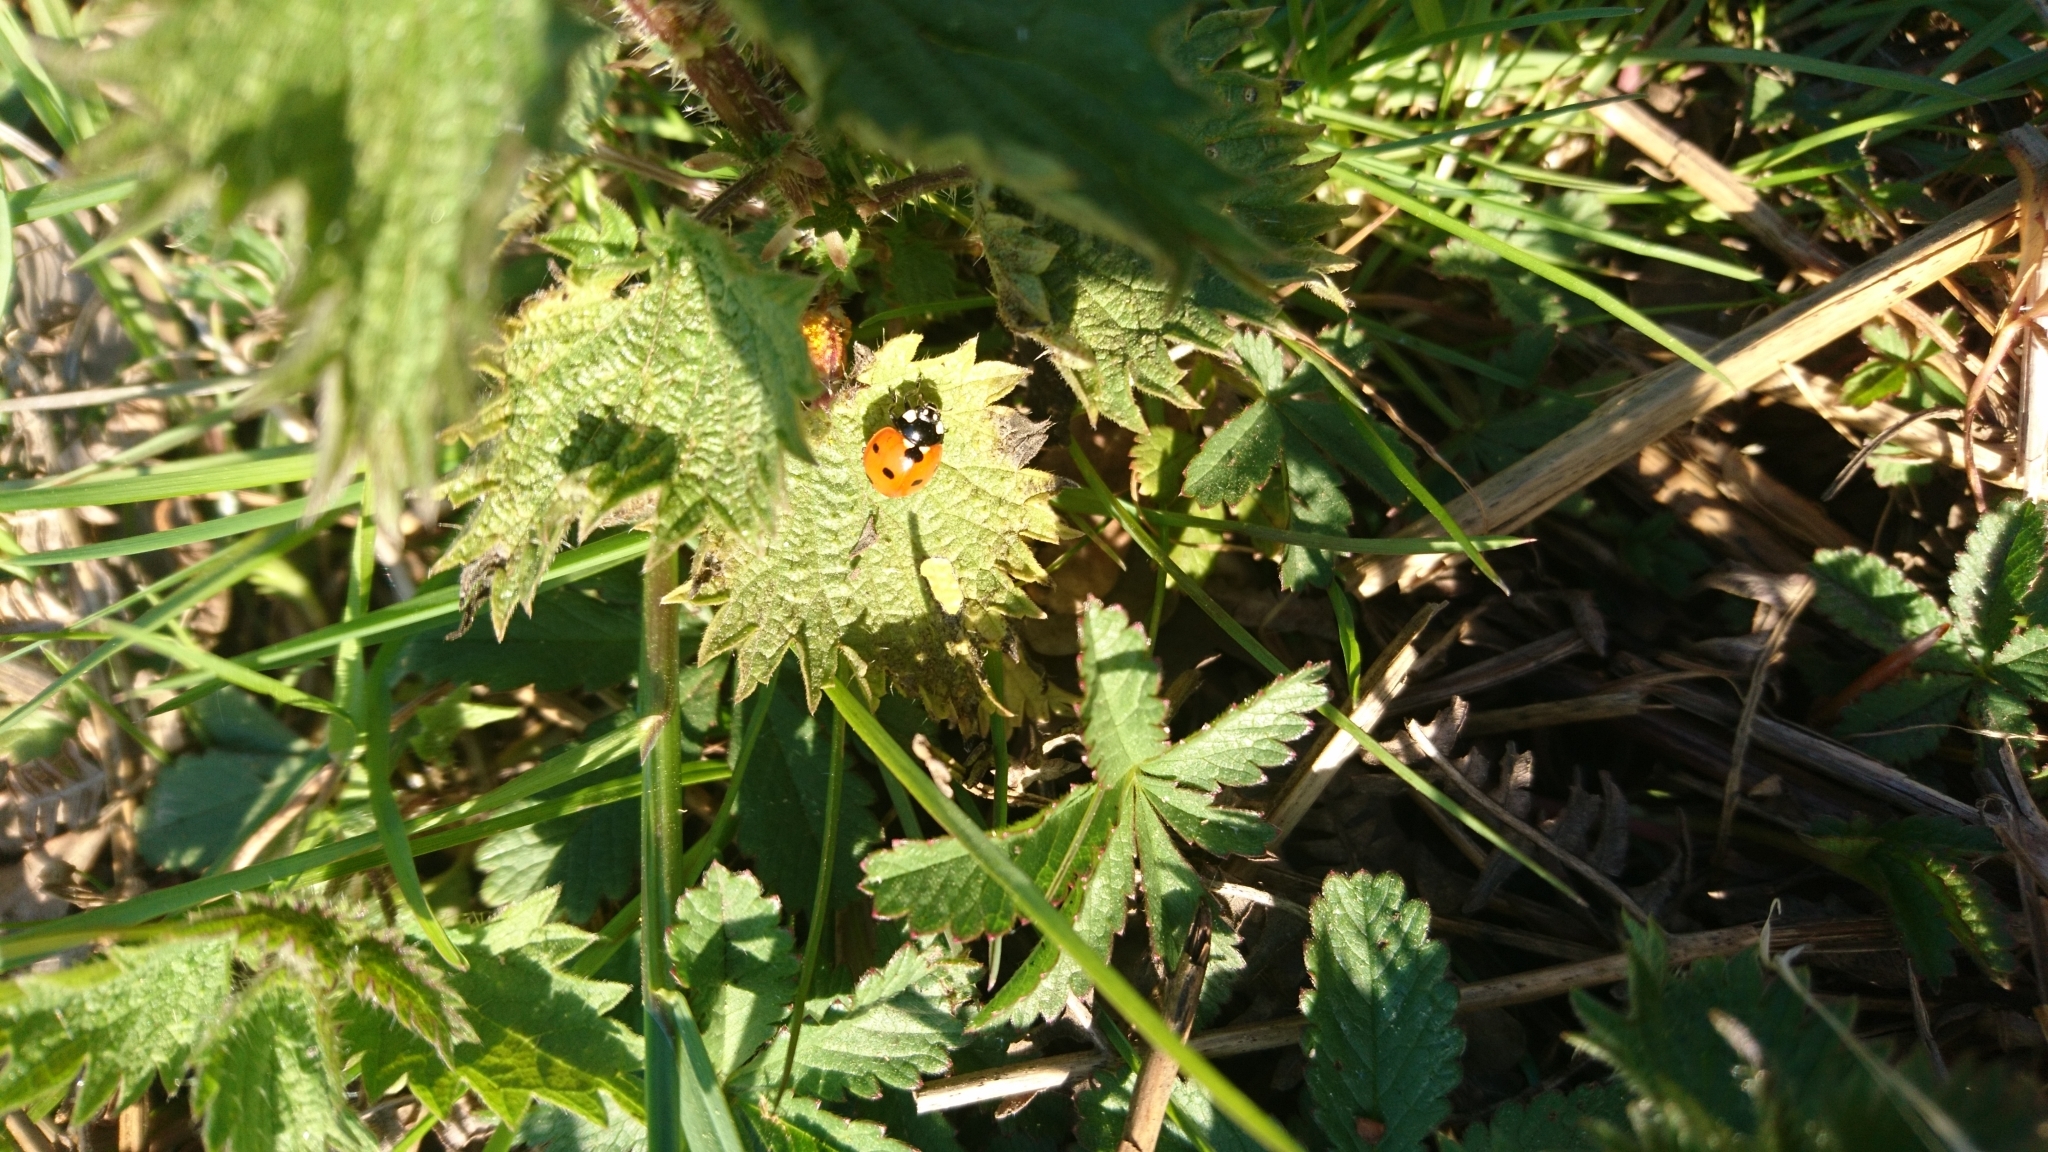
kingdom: Animalia
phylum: Arthropoda
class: Insecta
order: Coleoptera
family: Coccinellidae
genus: Coccinella
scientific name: Coccinella septempunctata
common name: Sevenspotted lady beetle
